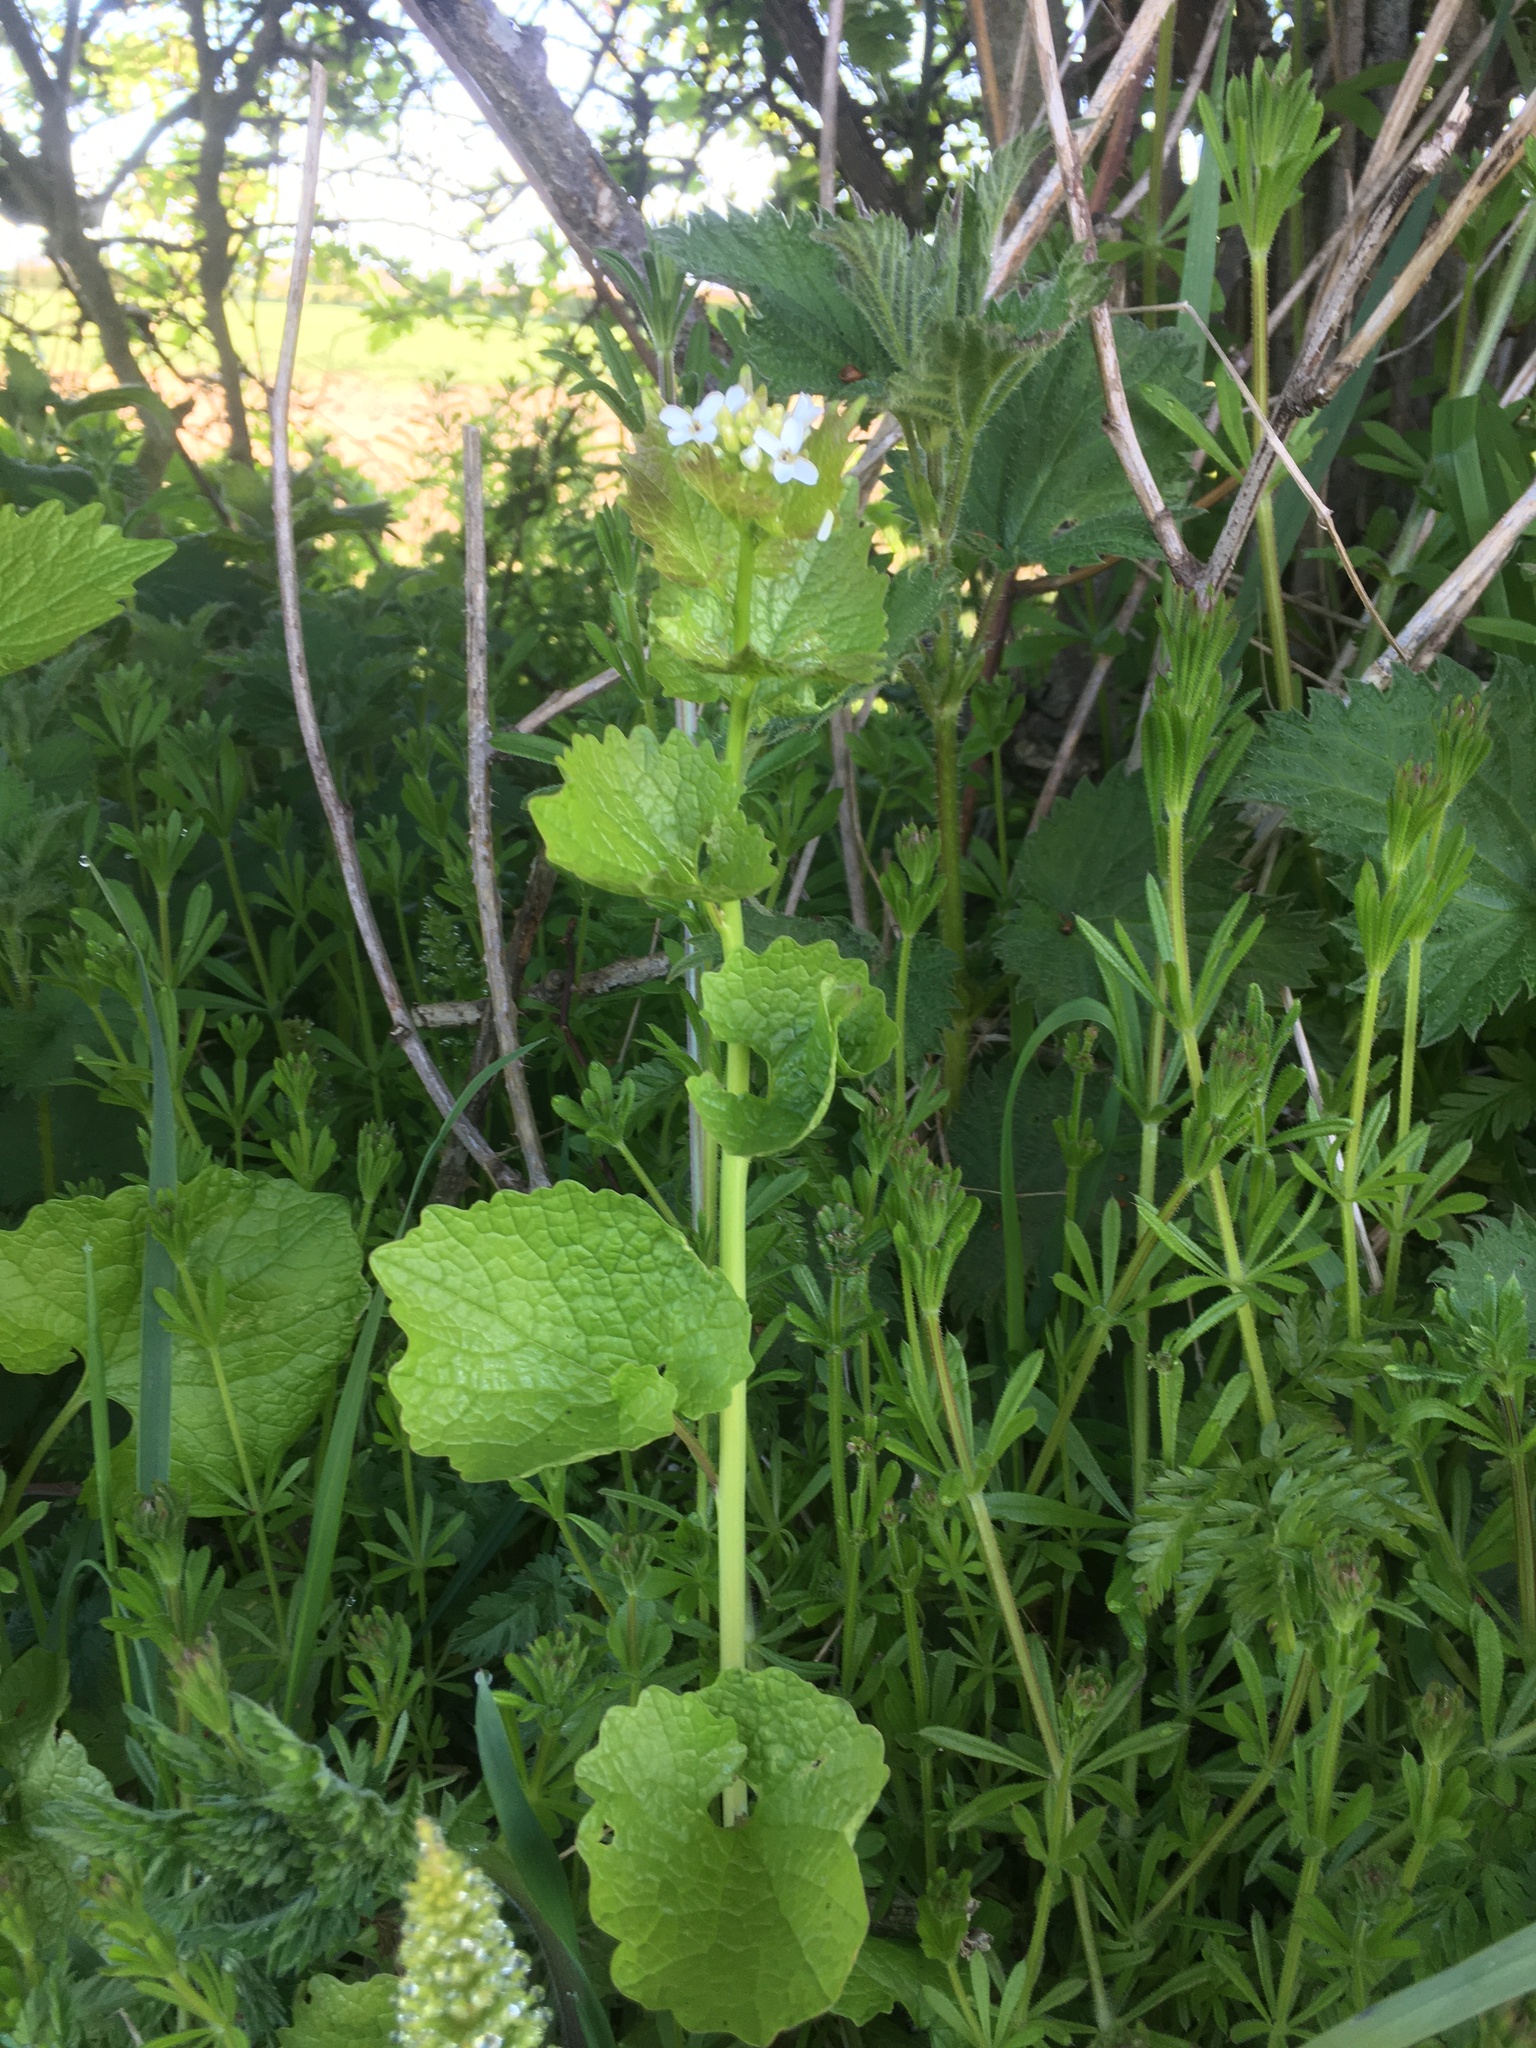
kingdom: Plantae
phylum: Tracheophyta
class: Magnoliopsida
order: Brassicales
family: Brassicaceae
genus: Alliaria
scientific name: Alliaria petiolata
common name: Garlic mustard
